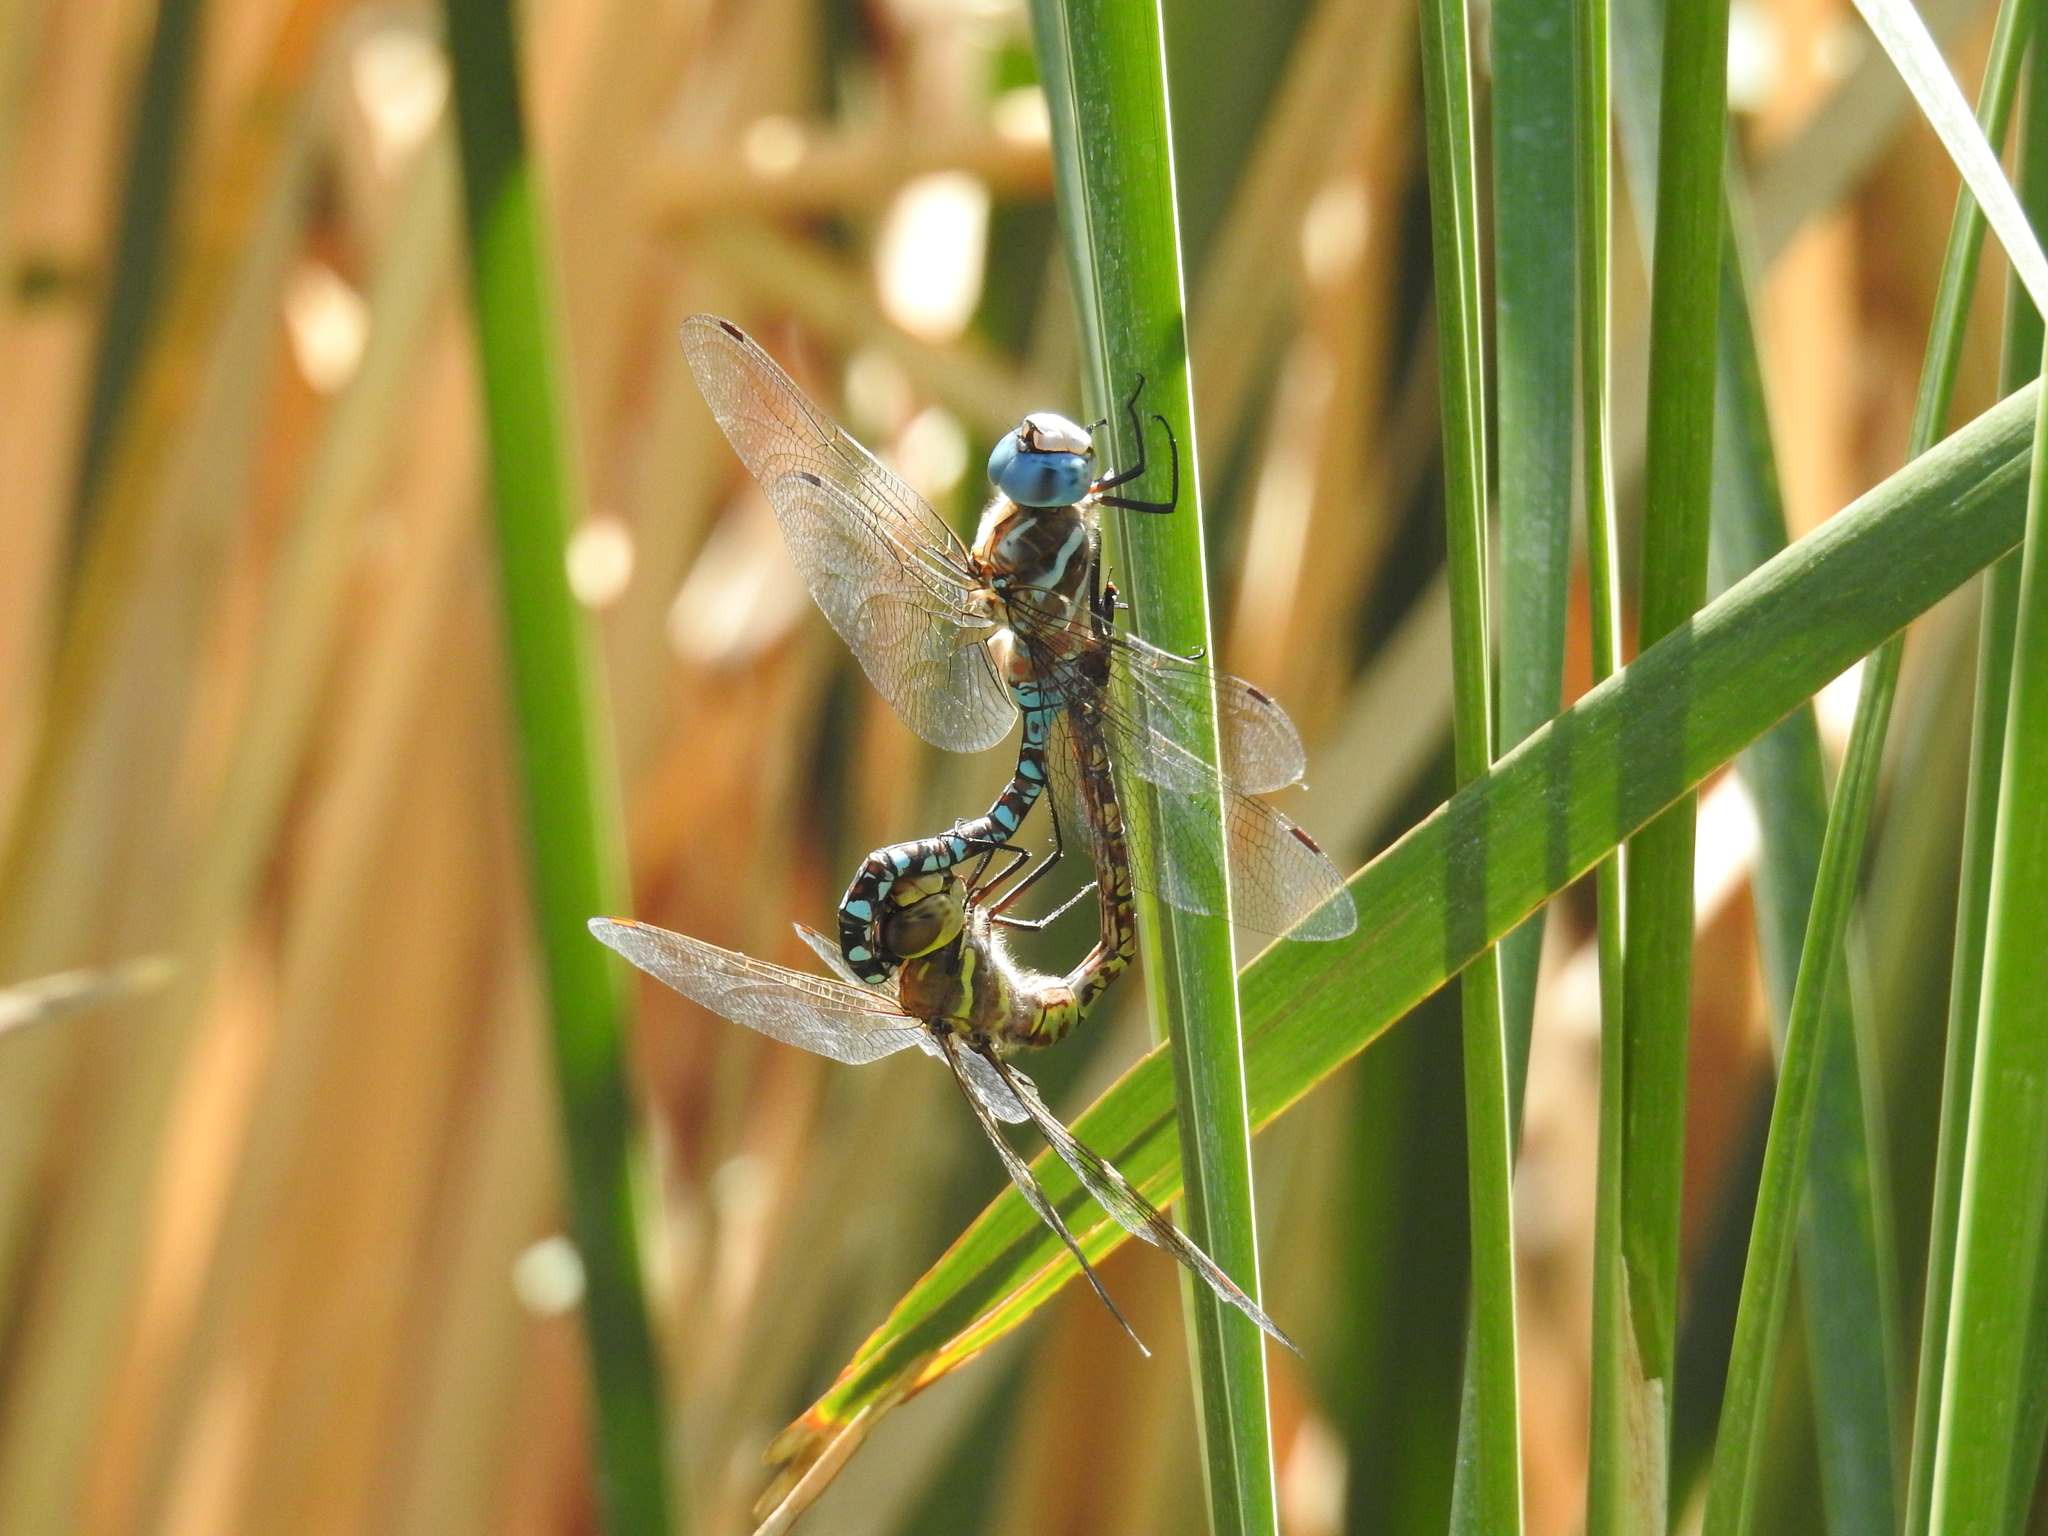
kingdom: Animalia
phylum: Arthropoda
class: Insecta
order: Odonata
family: Aeshnidae
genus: Rhionaeschna
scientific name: Rhionaeschna multicolor
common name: Blue-eyed darner
